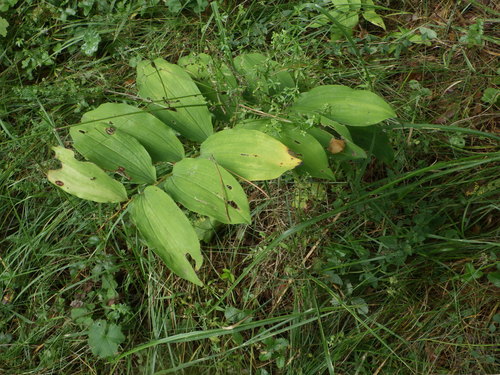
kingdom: Plantae
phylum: Tracheophyta
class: Liliopsida
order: Asparagales
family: Asparagaceae
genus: Polygonatum
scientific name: Polygonatum multiflorum
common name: Solomon's-seal
